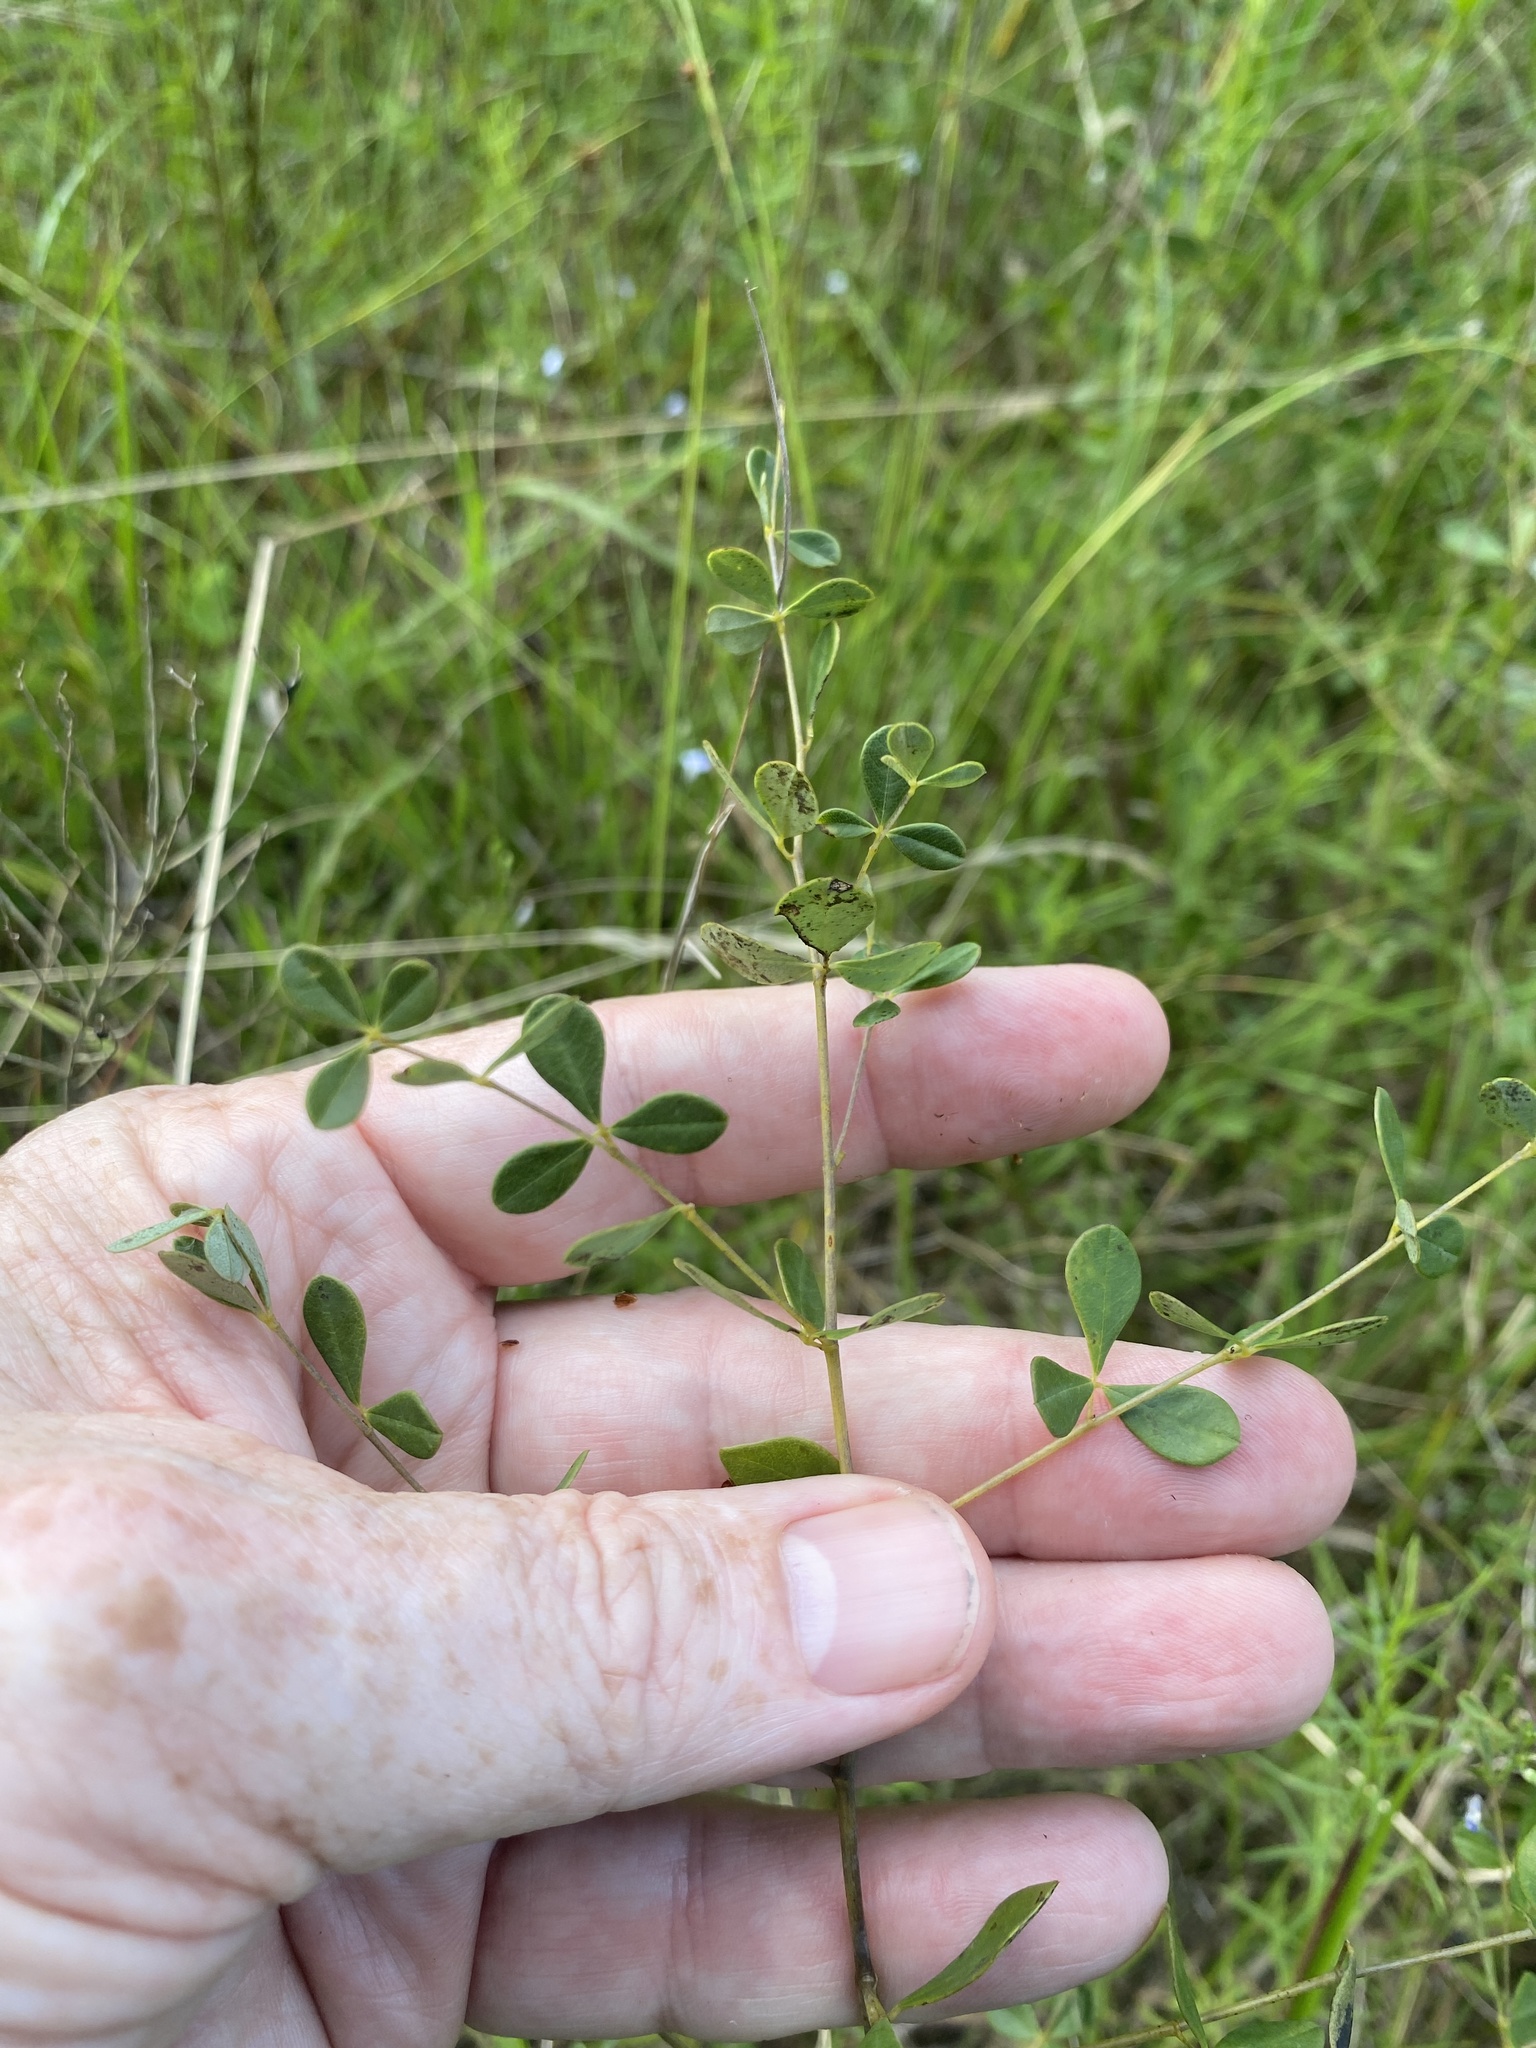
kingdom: Plantae
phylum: Tracheophyta
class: Magnoliopsida
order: Fabales
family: Fabaceae
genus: Baptisia
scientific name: Baptisia tinctoria
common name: Wild indigo
